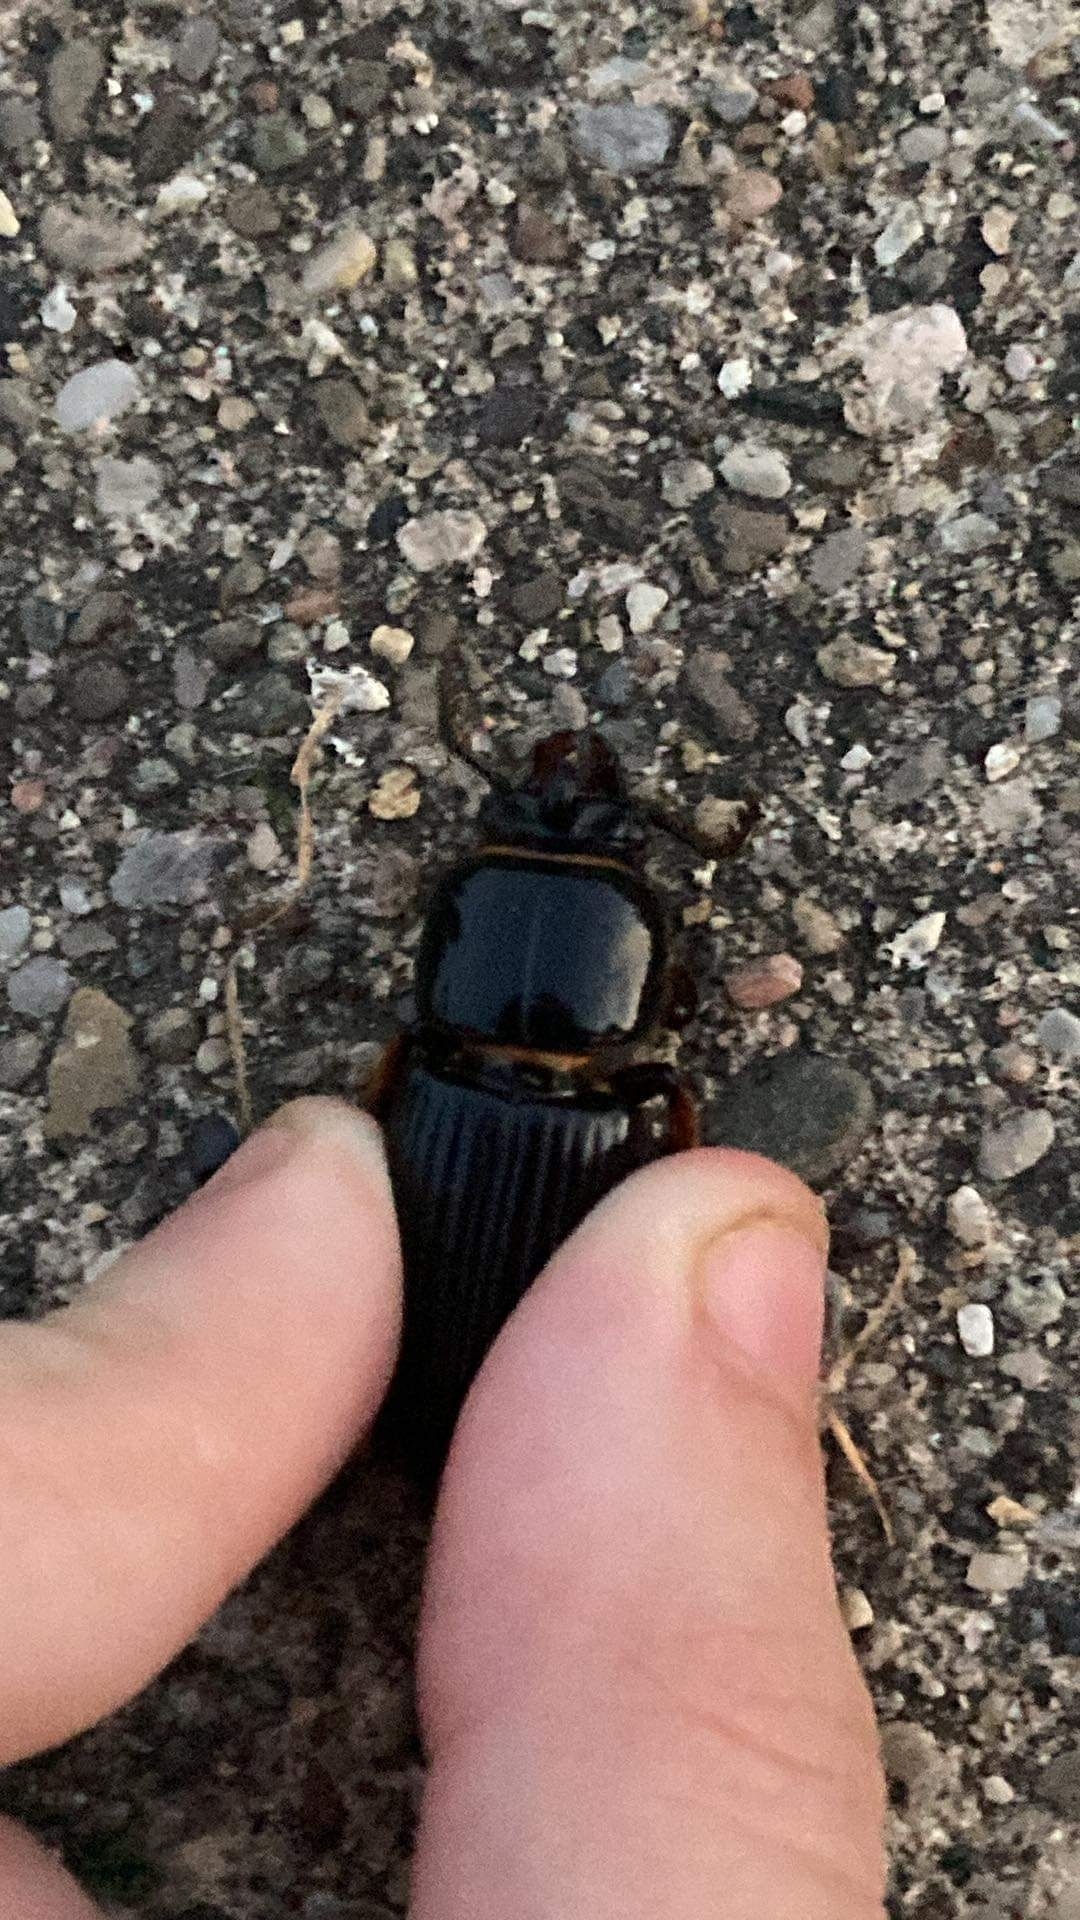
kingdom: Animalia
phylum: Arthropoda
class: Insecta
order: Coleoptera
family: Passalidae
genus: Odontotaenius
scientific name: Odontotaenius disjunctus
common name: Patent leather beetle
